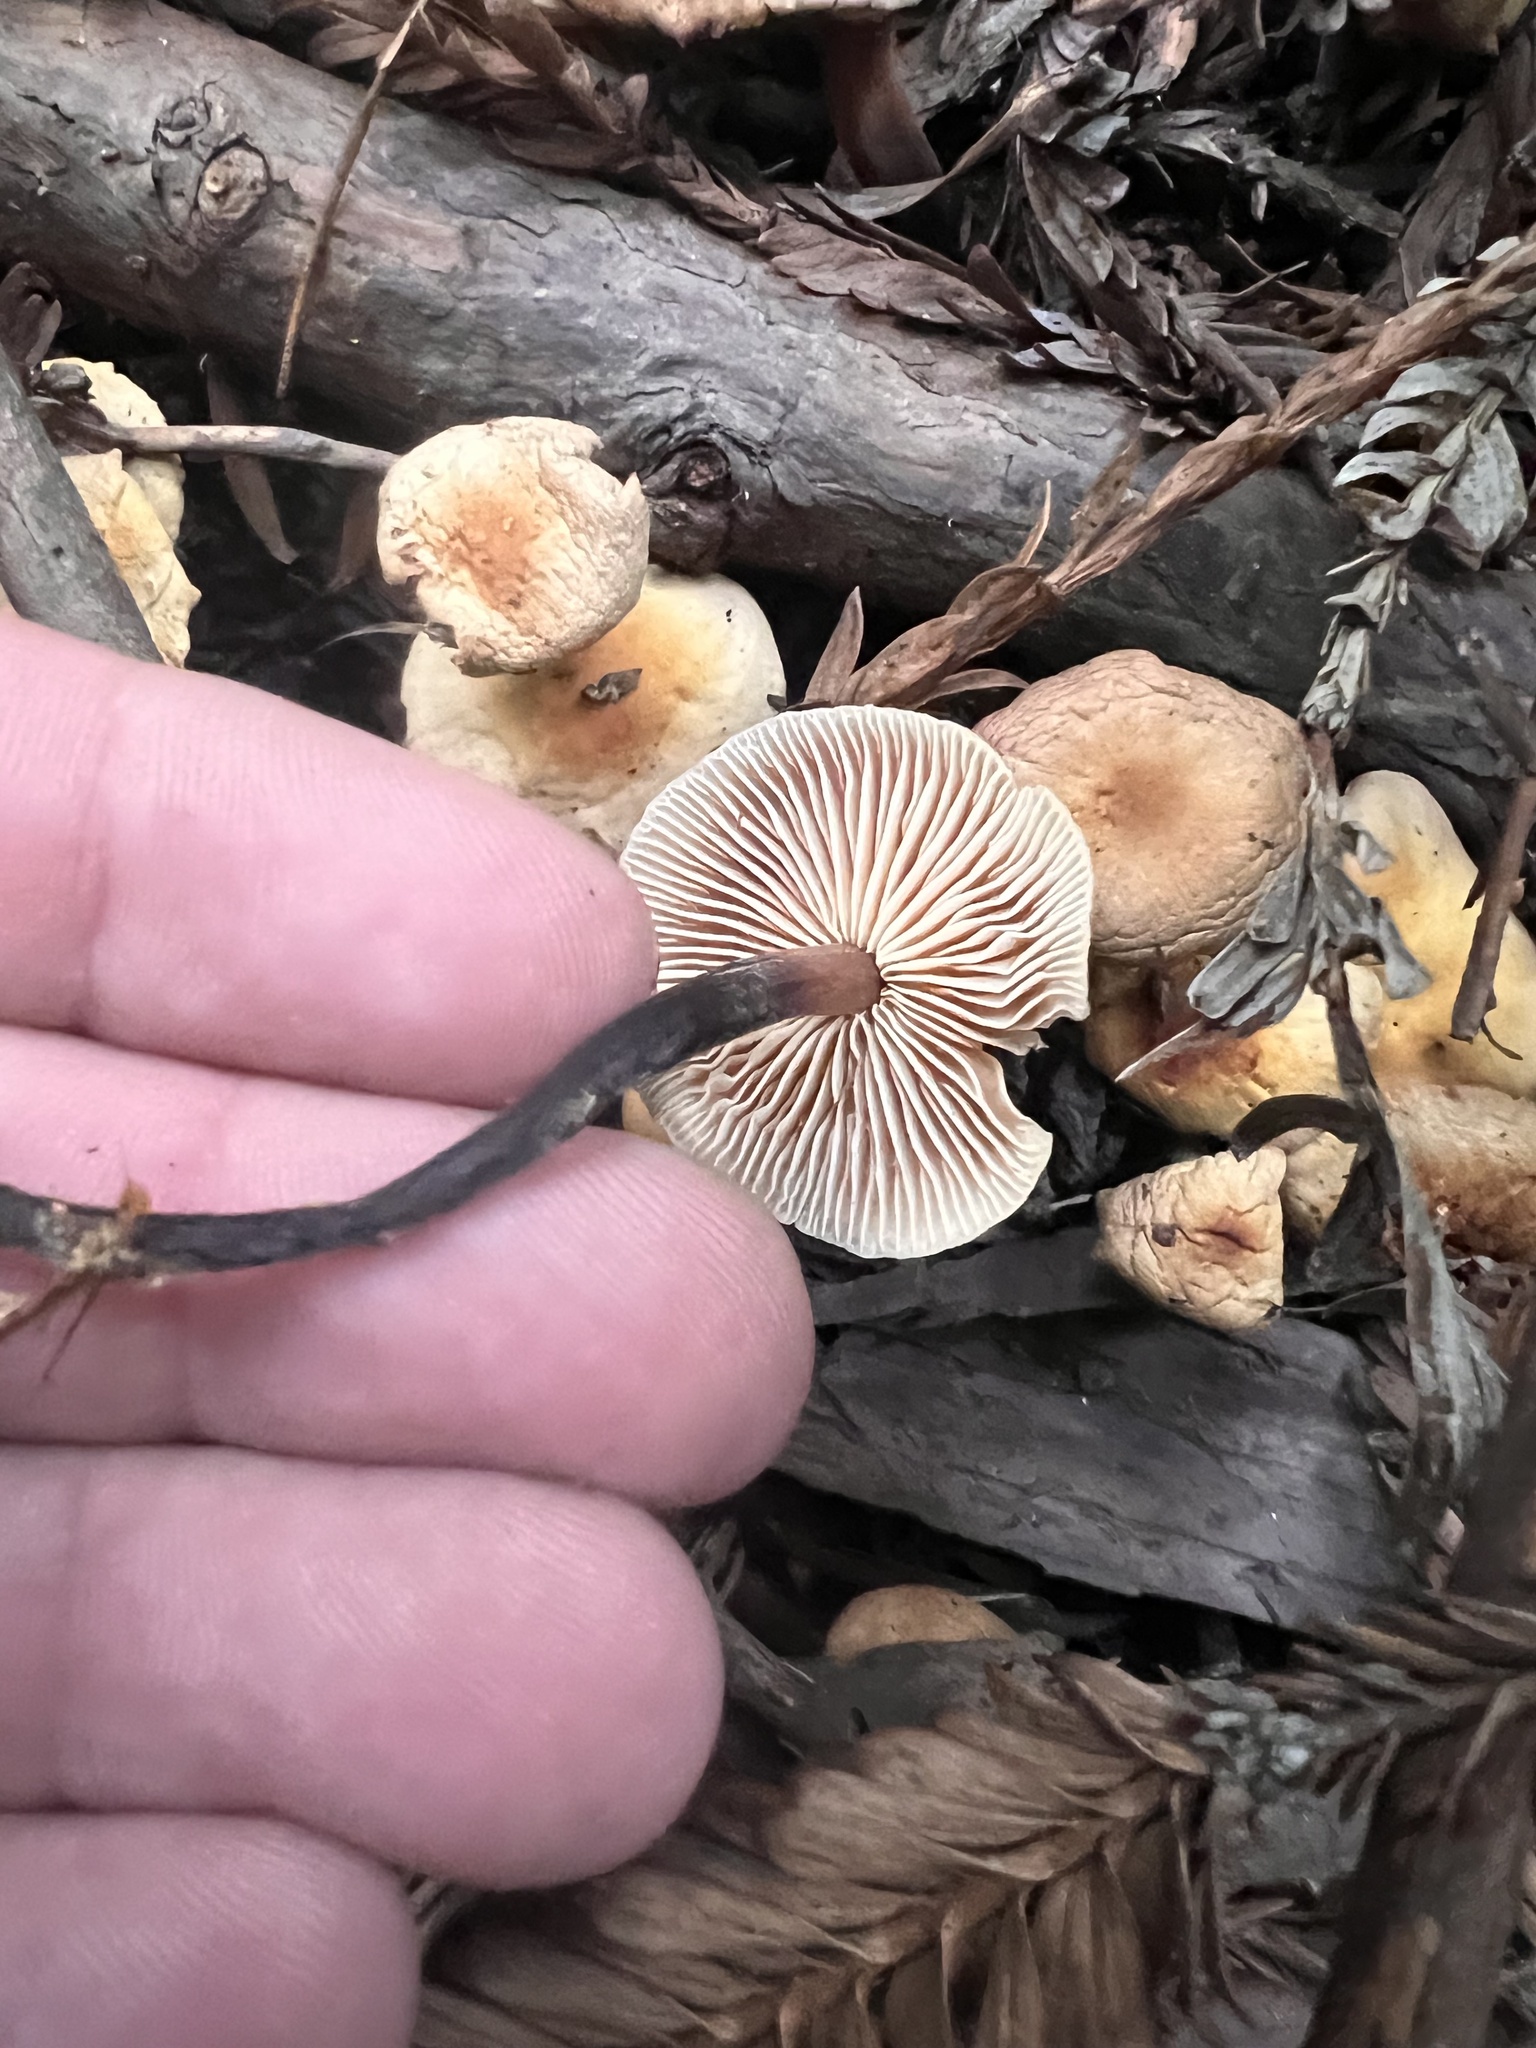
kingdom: Fungi
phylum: Basidiomycota
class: Agaricomycetes
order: Agaricales
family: Omphalotaceae
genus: Gymnopus
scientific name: Gymnopus brassicolens
